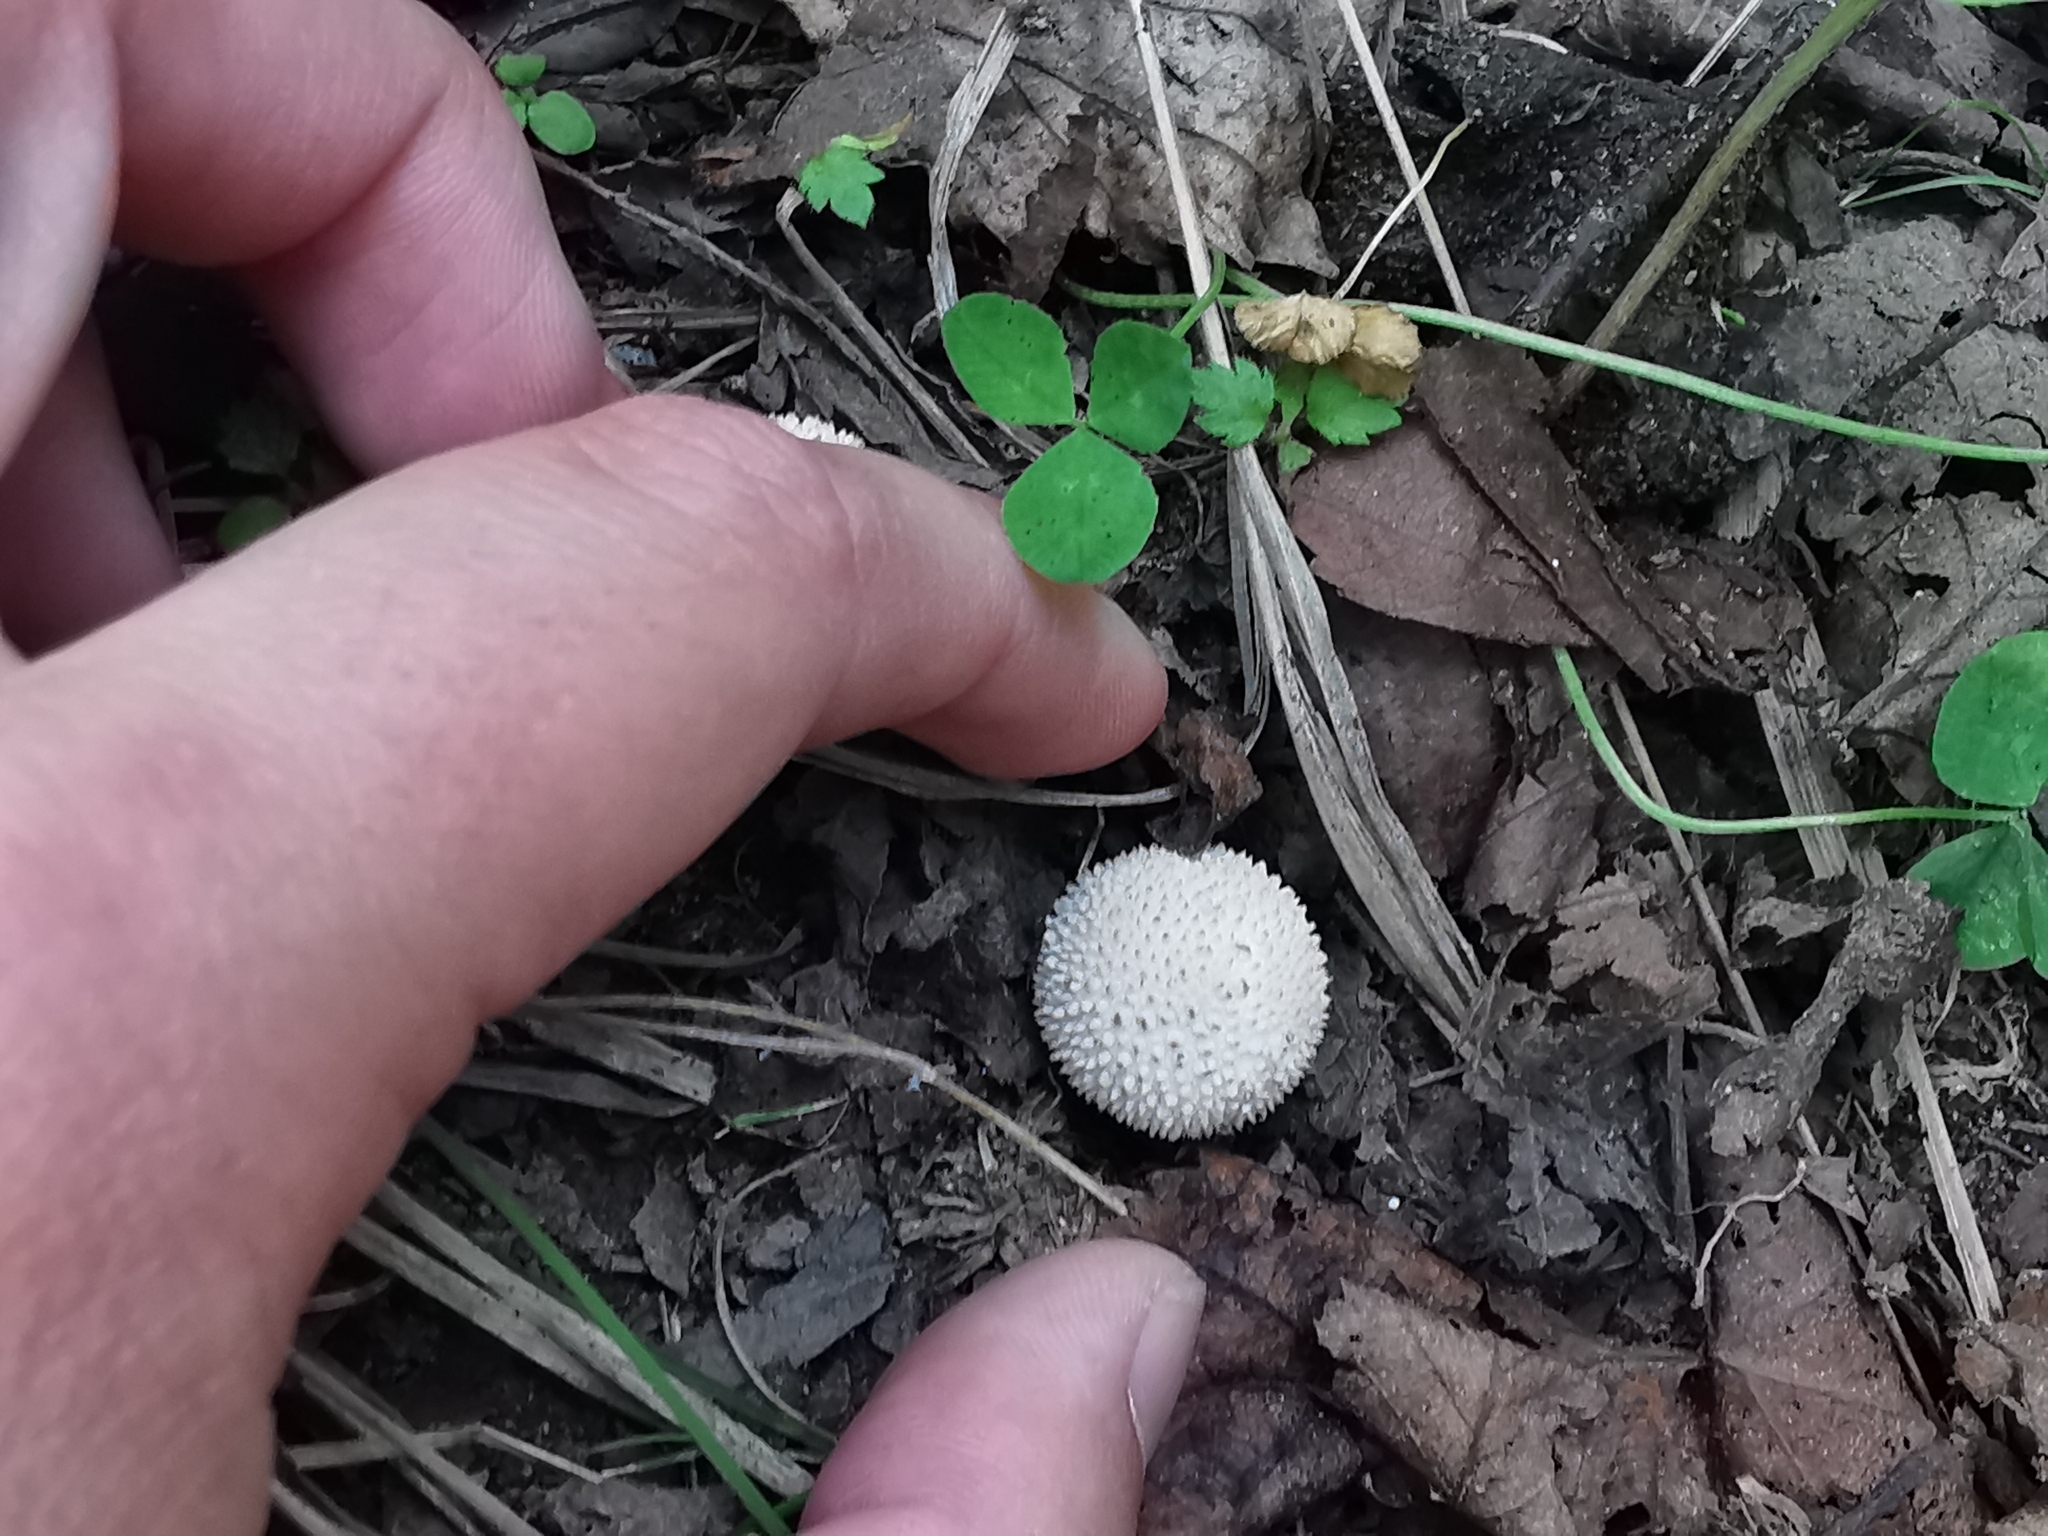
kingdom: Fungi
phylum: Basidiomycota
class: Agaricomycetes
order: Agaricales
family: Lycoperdaceae
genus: Lycoperdon
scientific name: Lycoperdon perlatum
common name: Common puffball
